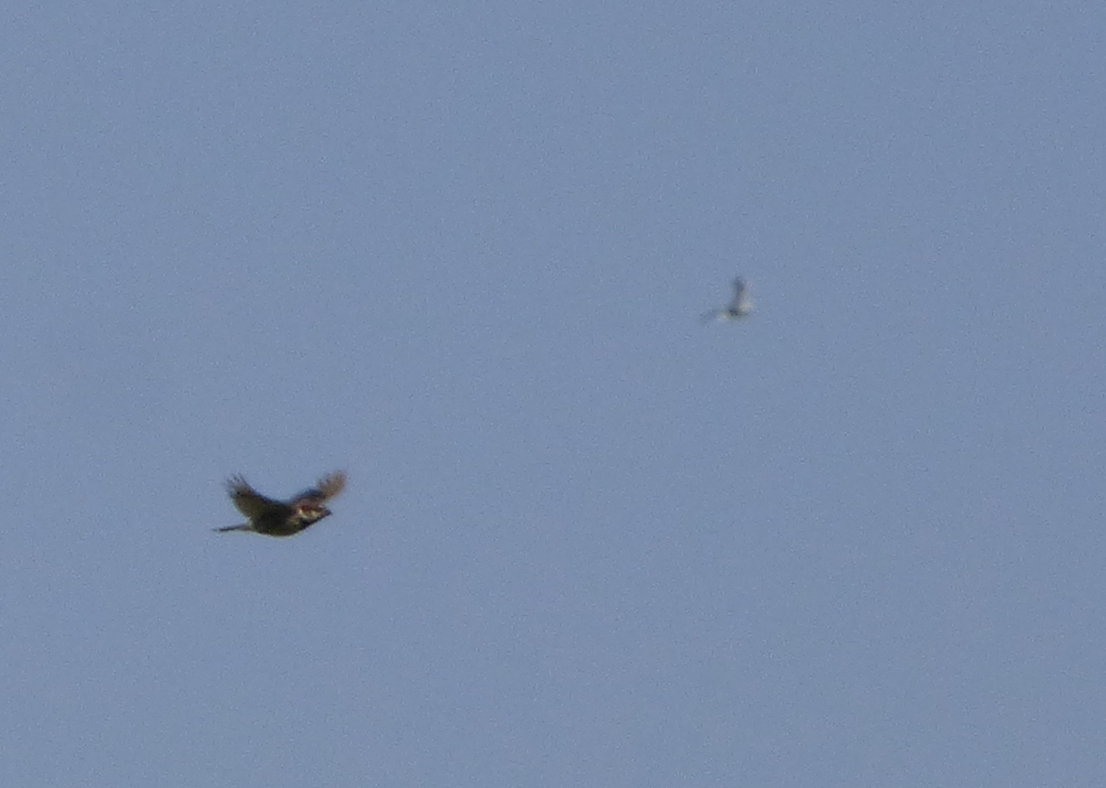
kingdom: Animalia
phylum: Chordata
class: Aves
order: Passeriformes
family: Passeridae
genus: Passer
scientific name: Passer domesticus
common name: House sparrow
